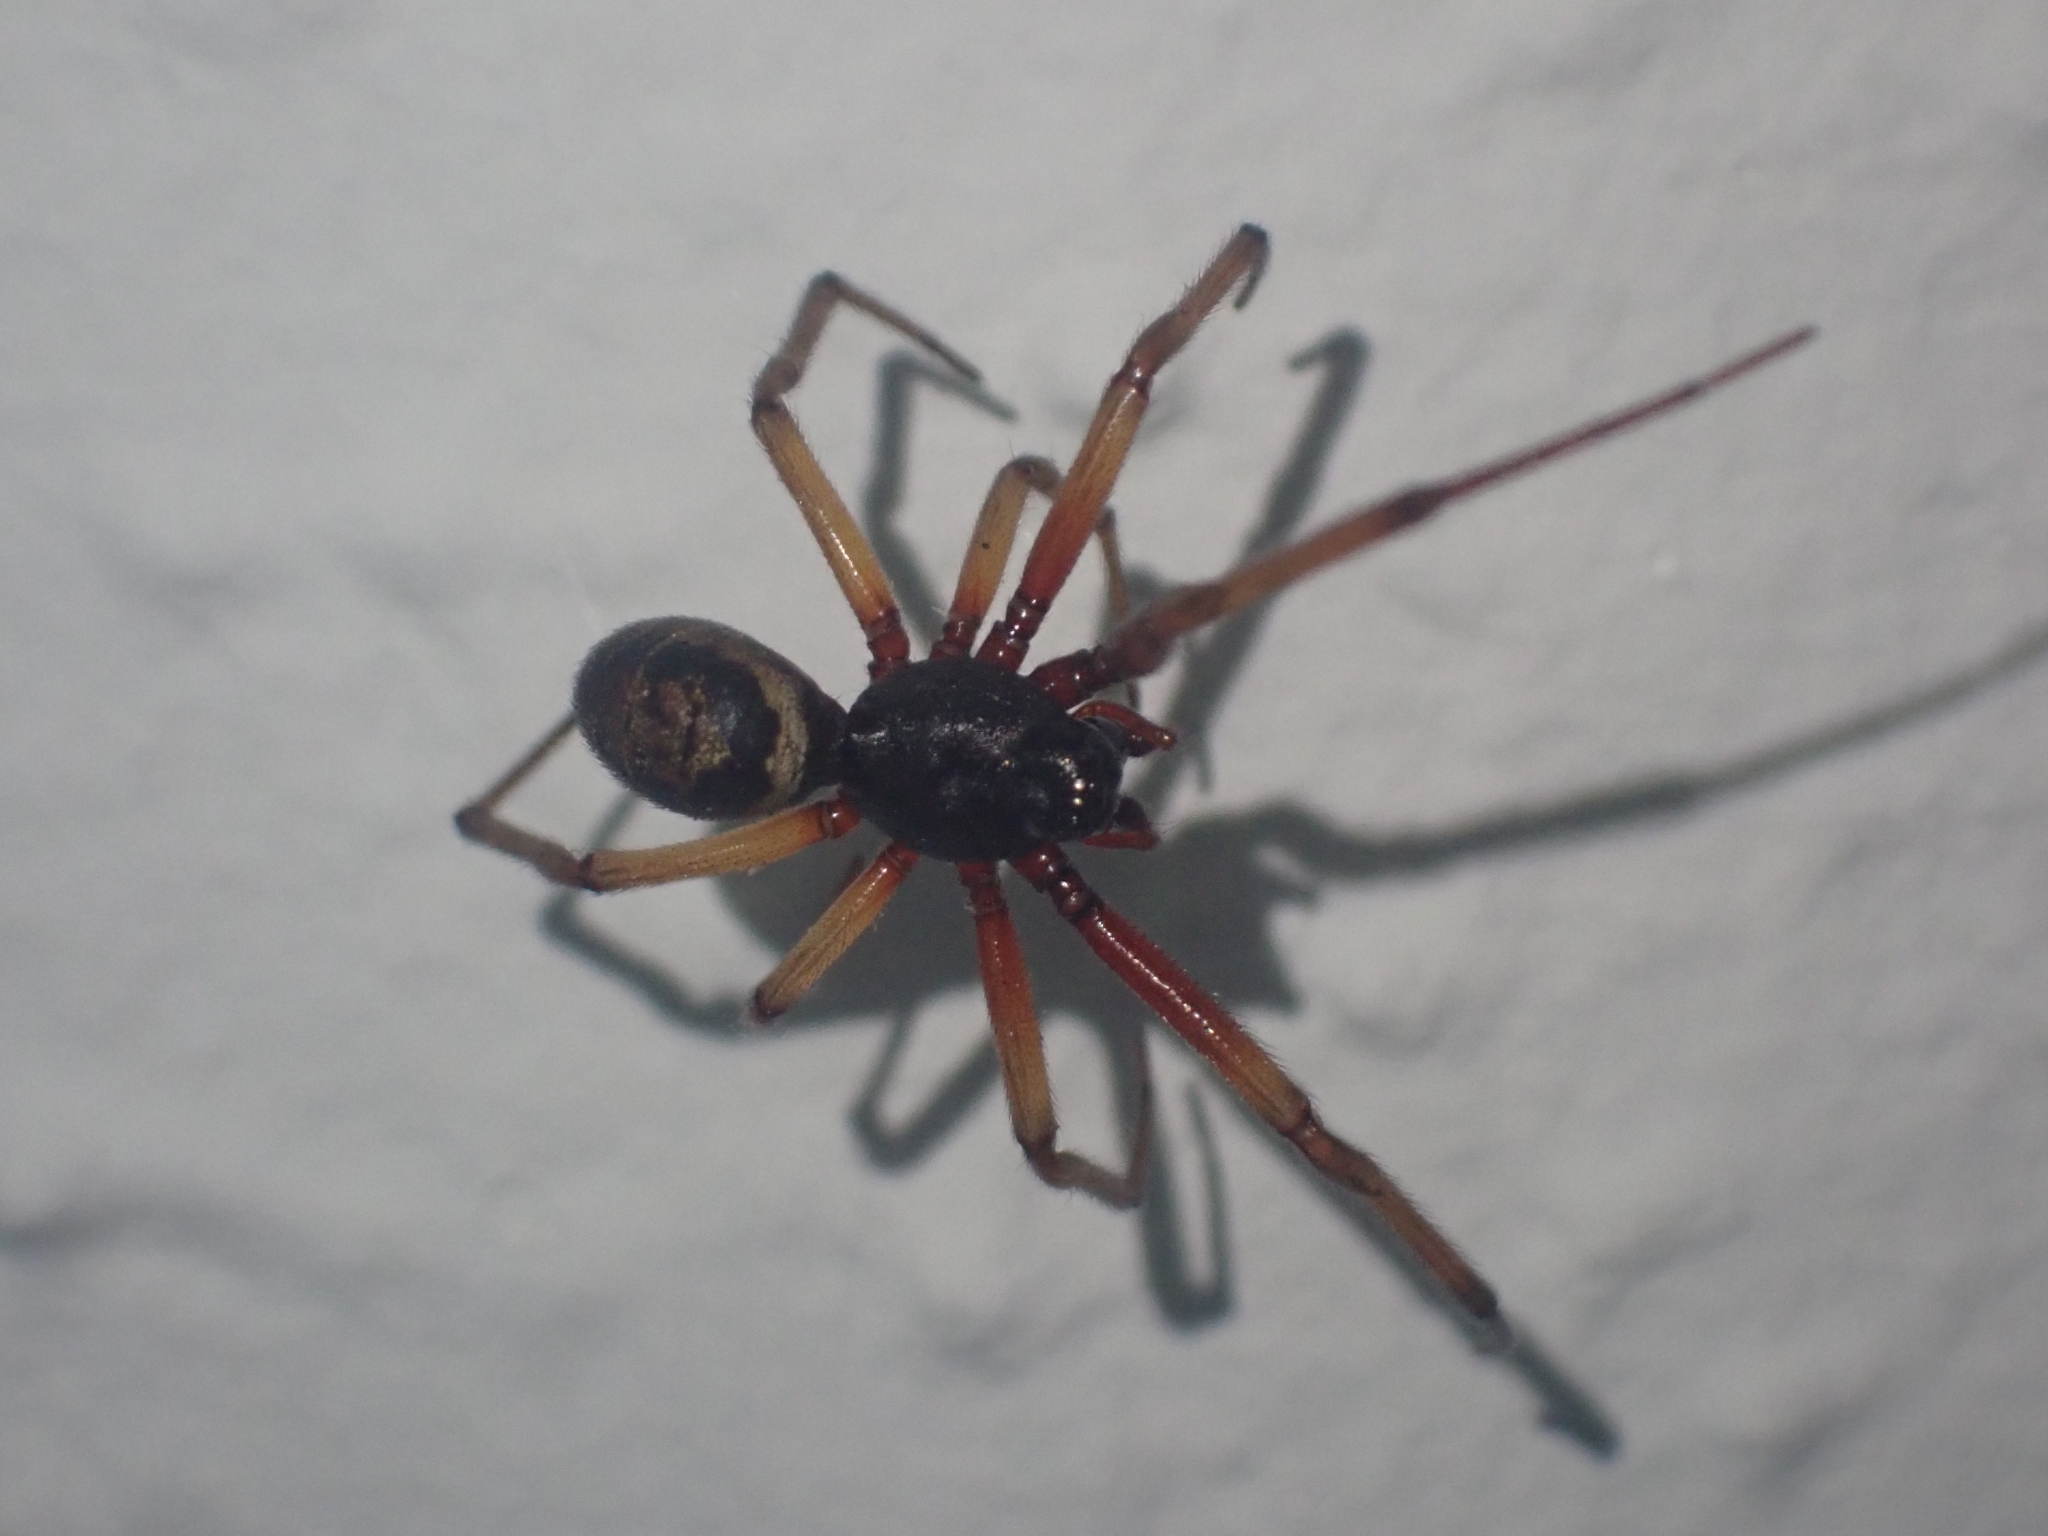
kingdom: Animalia
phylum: Arthropoda
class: Arachnida
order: Araneae
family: Theridiidae
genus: Steatoda
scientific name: Steatoda nobilis
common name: Cobweb weaver
